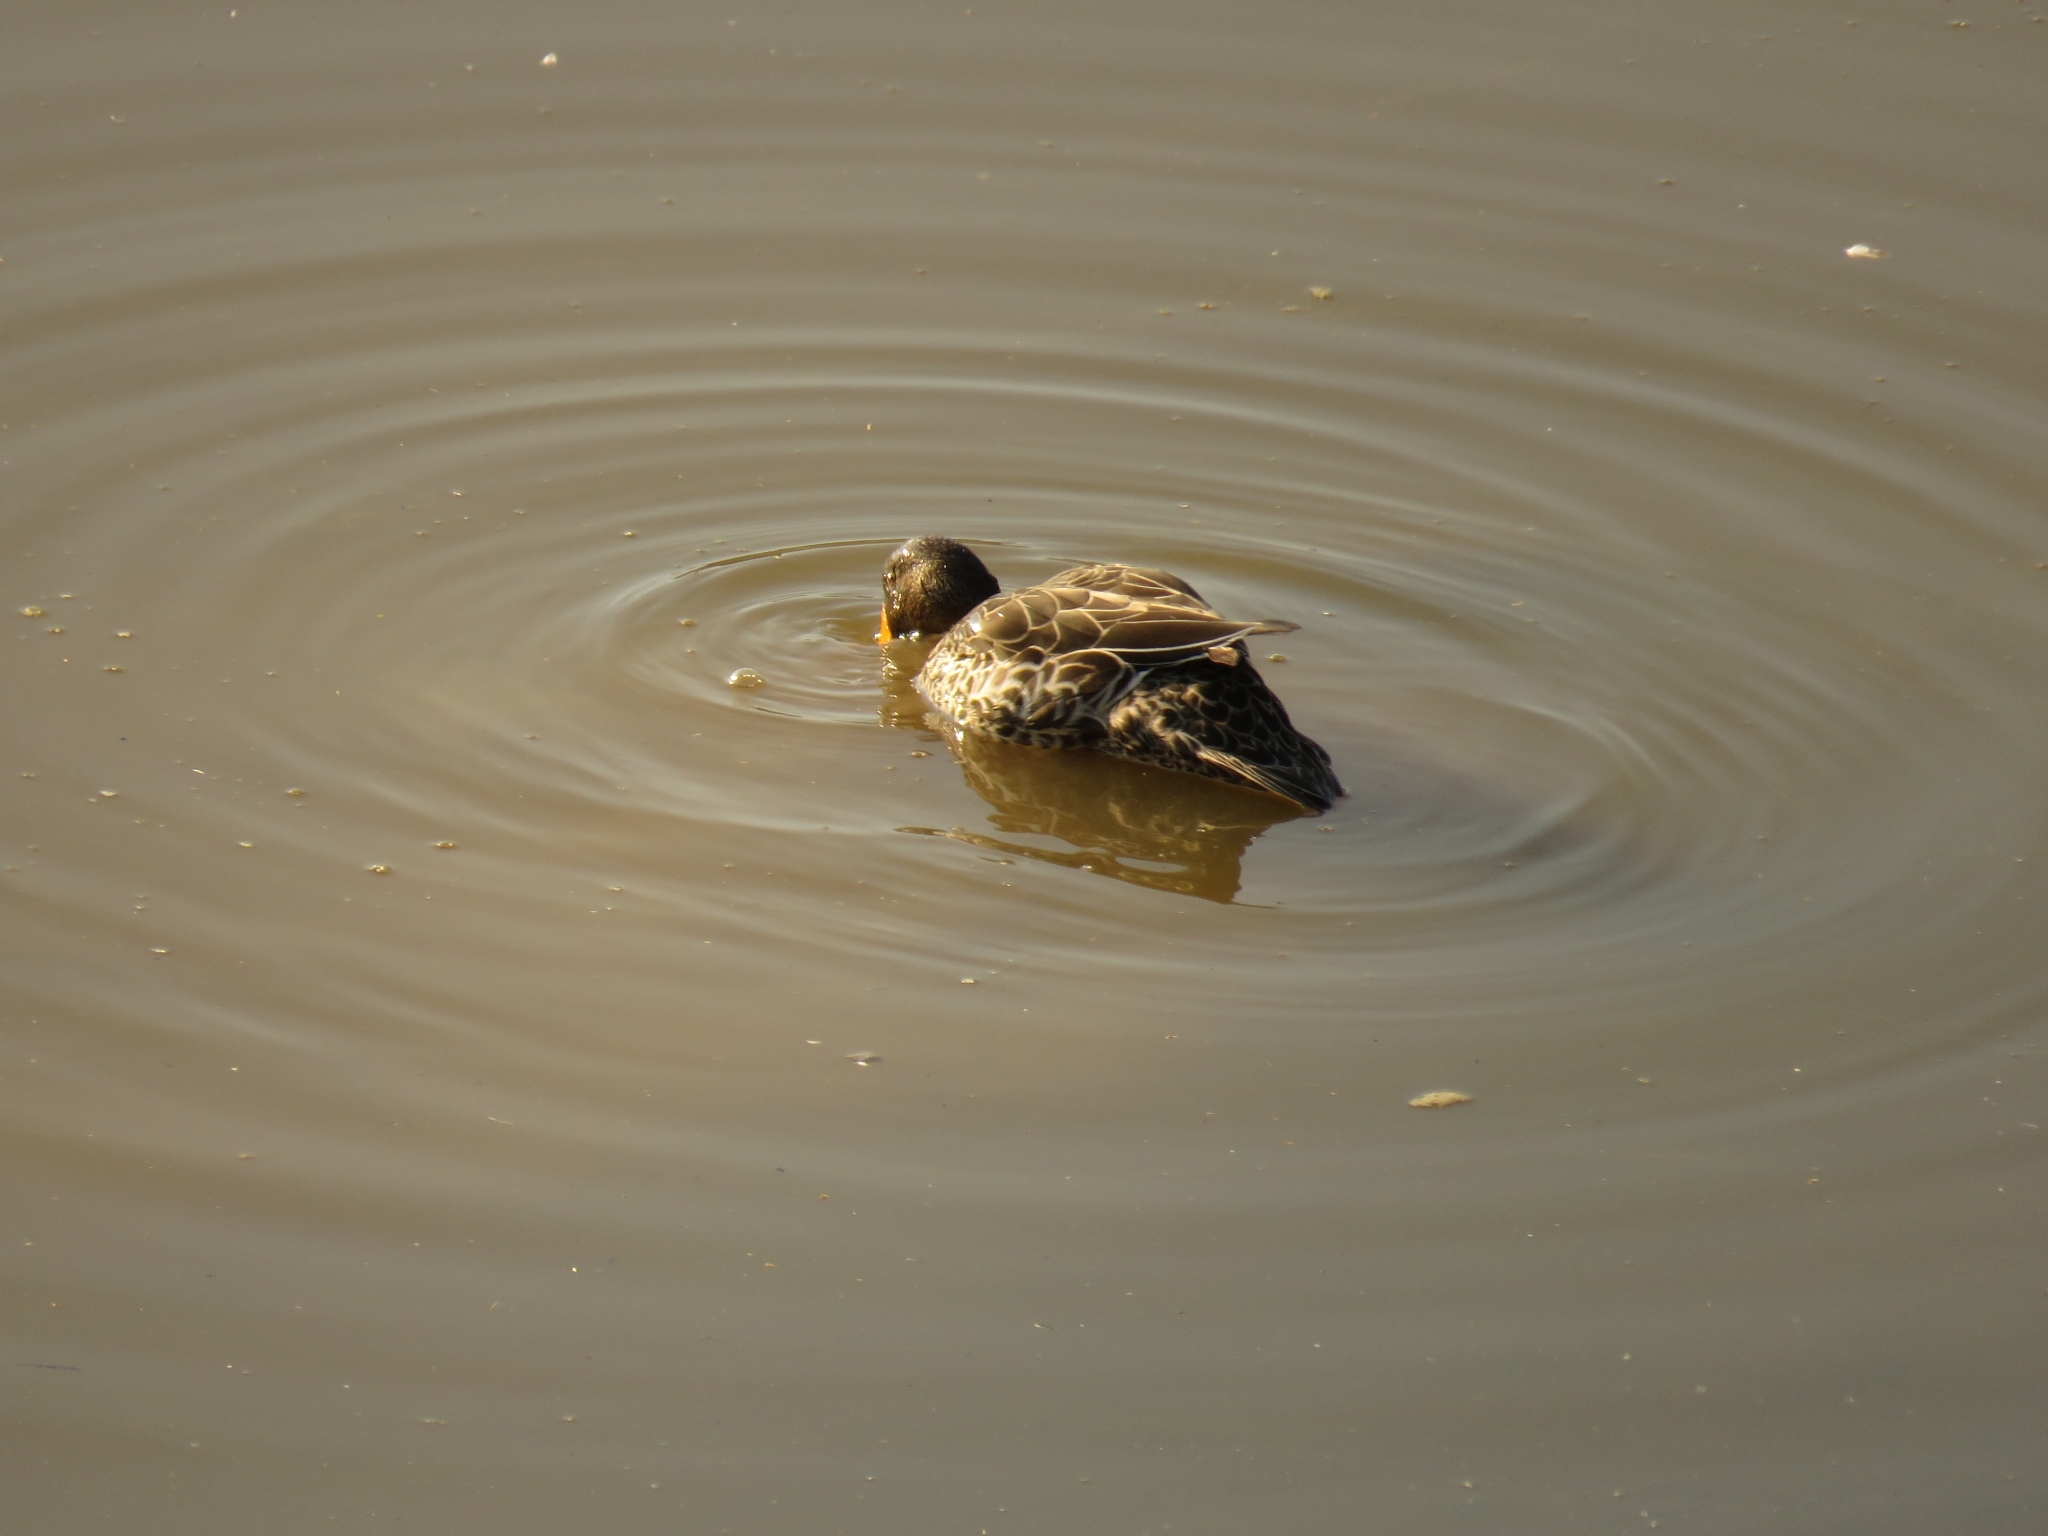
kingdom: Animalia
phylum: Chordata
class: Aves
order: Anseriformes
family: Anatidae
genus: Anas
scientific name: Anas undulata
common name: Yellow-billed duck
